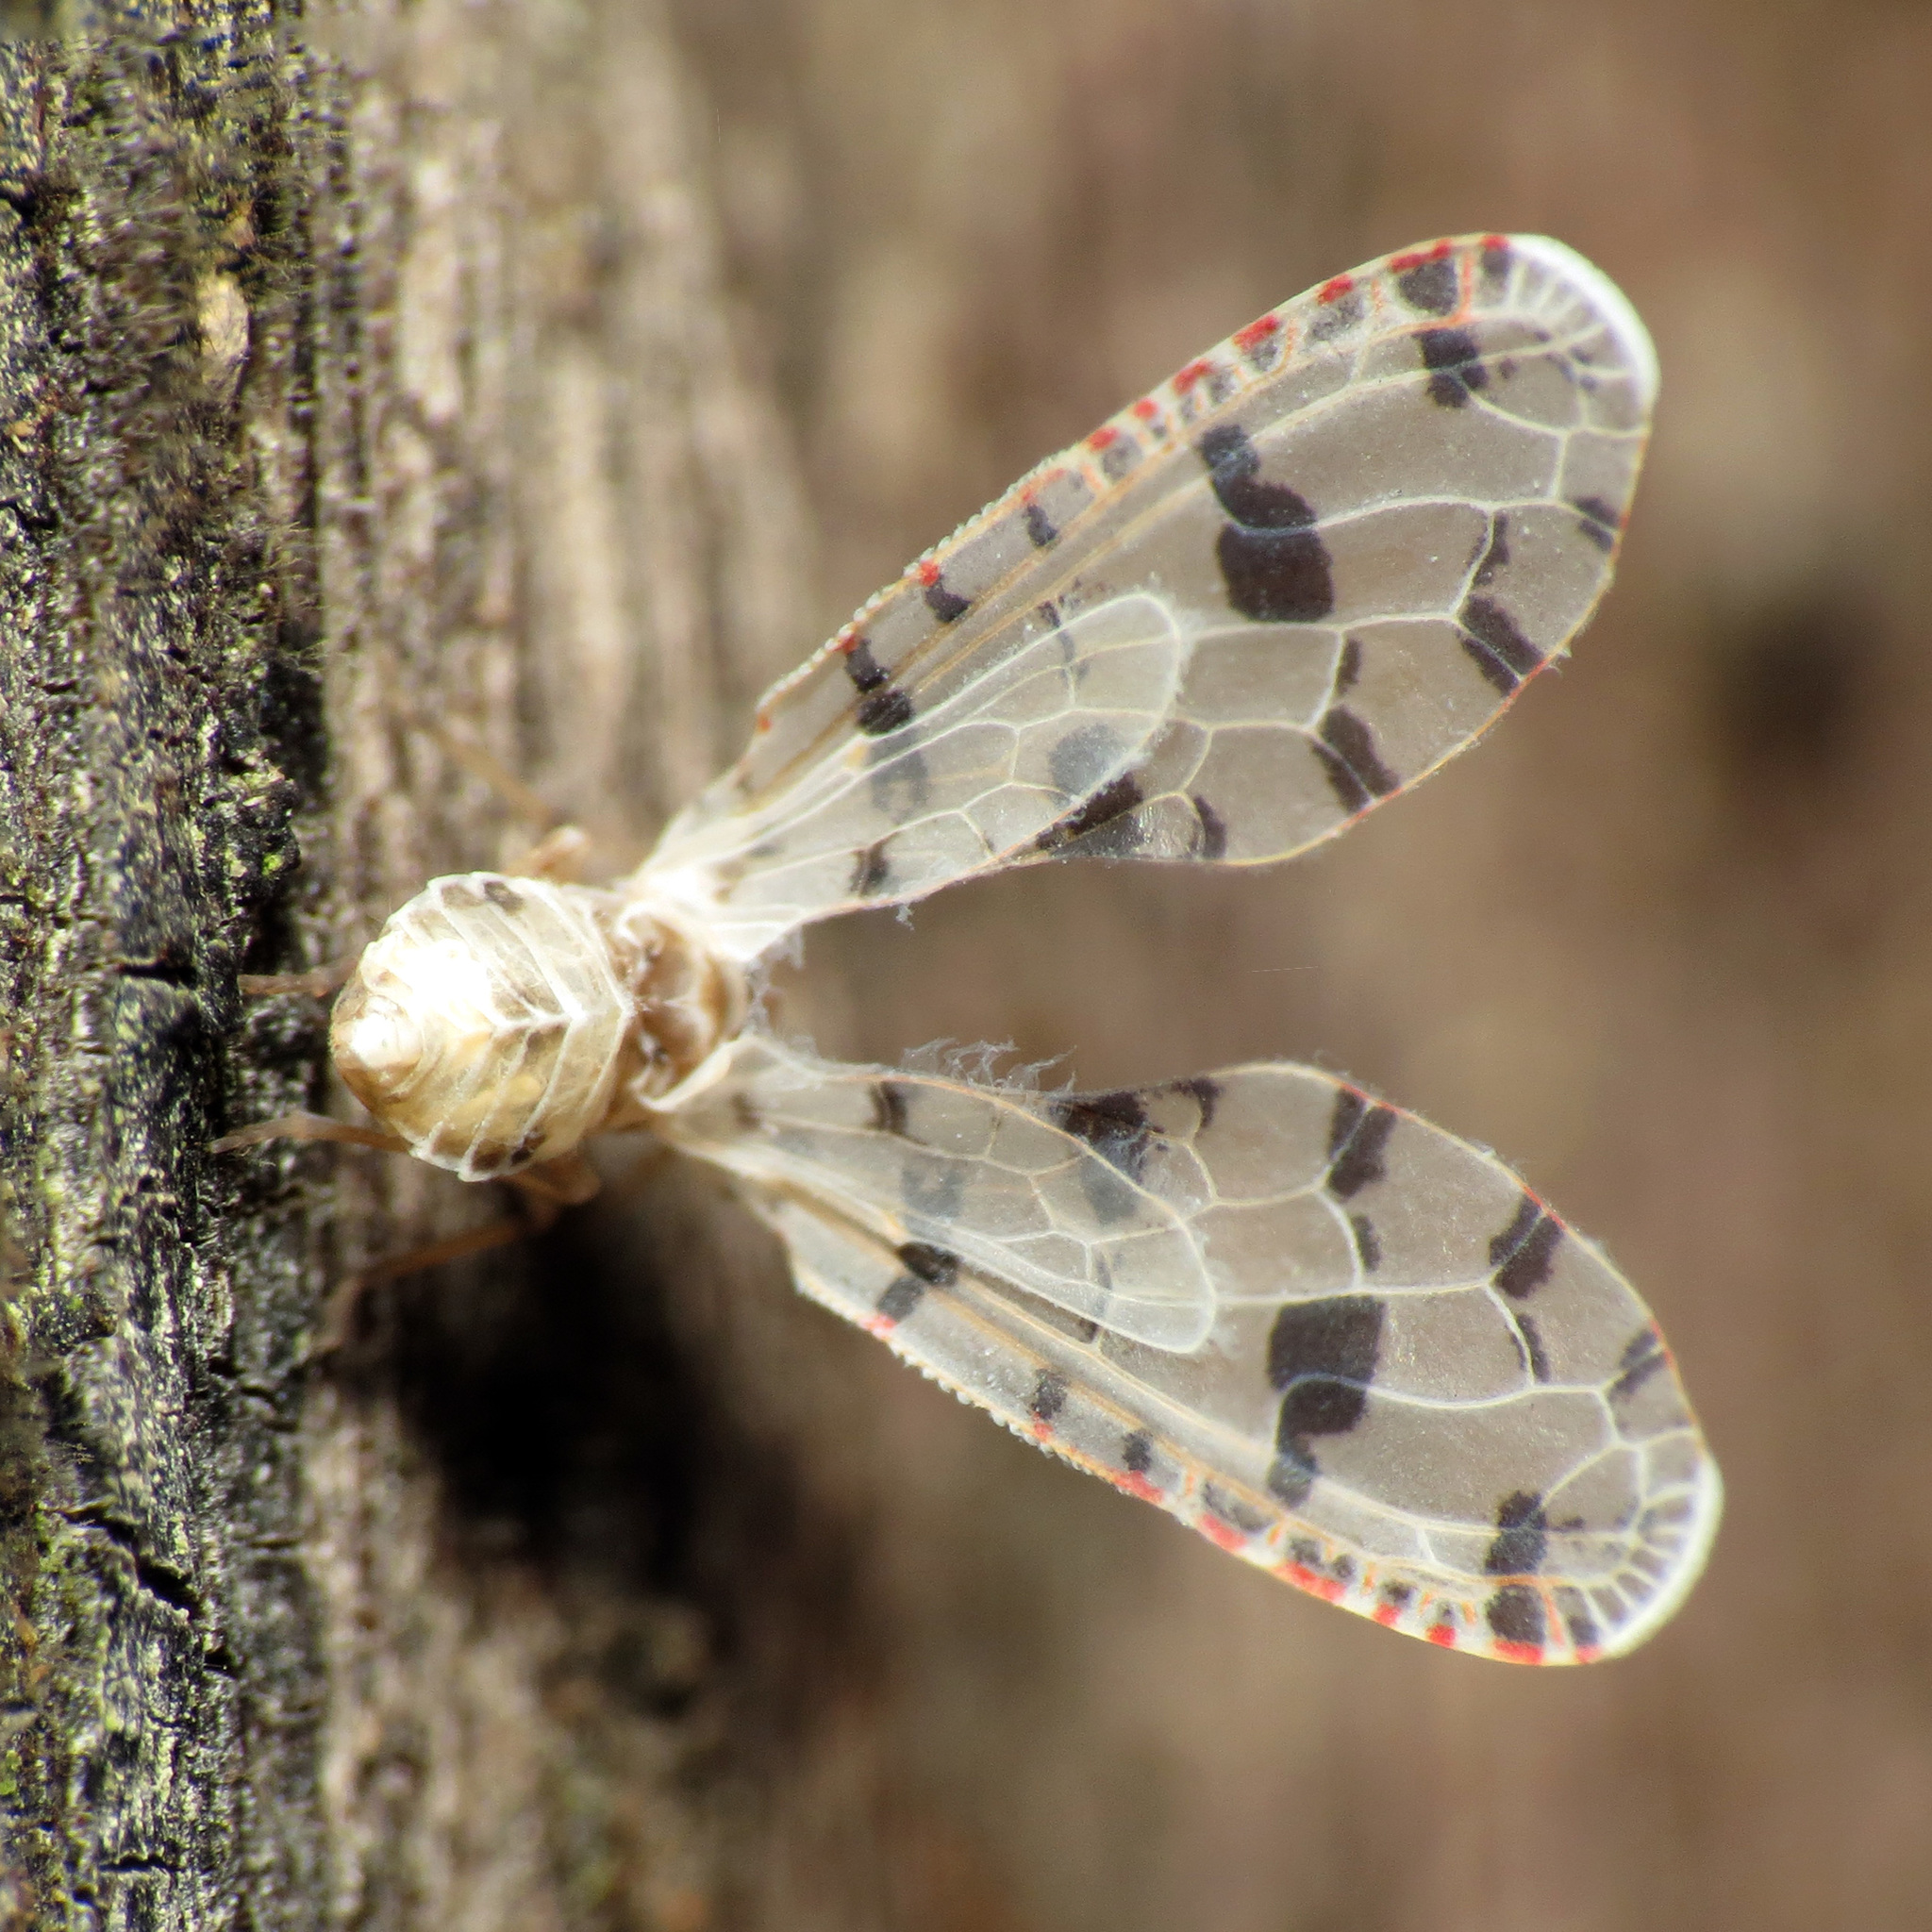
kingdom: Animalia
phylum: Arthropoda
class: Insecta
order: Hemiptera
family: Derbidae
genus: Sikaiana
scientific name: Sikaiana harti
